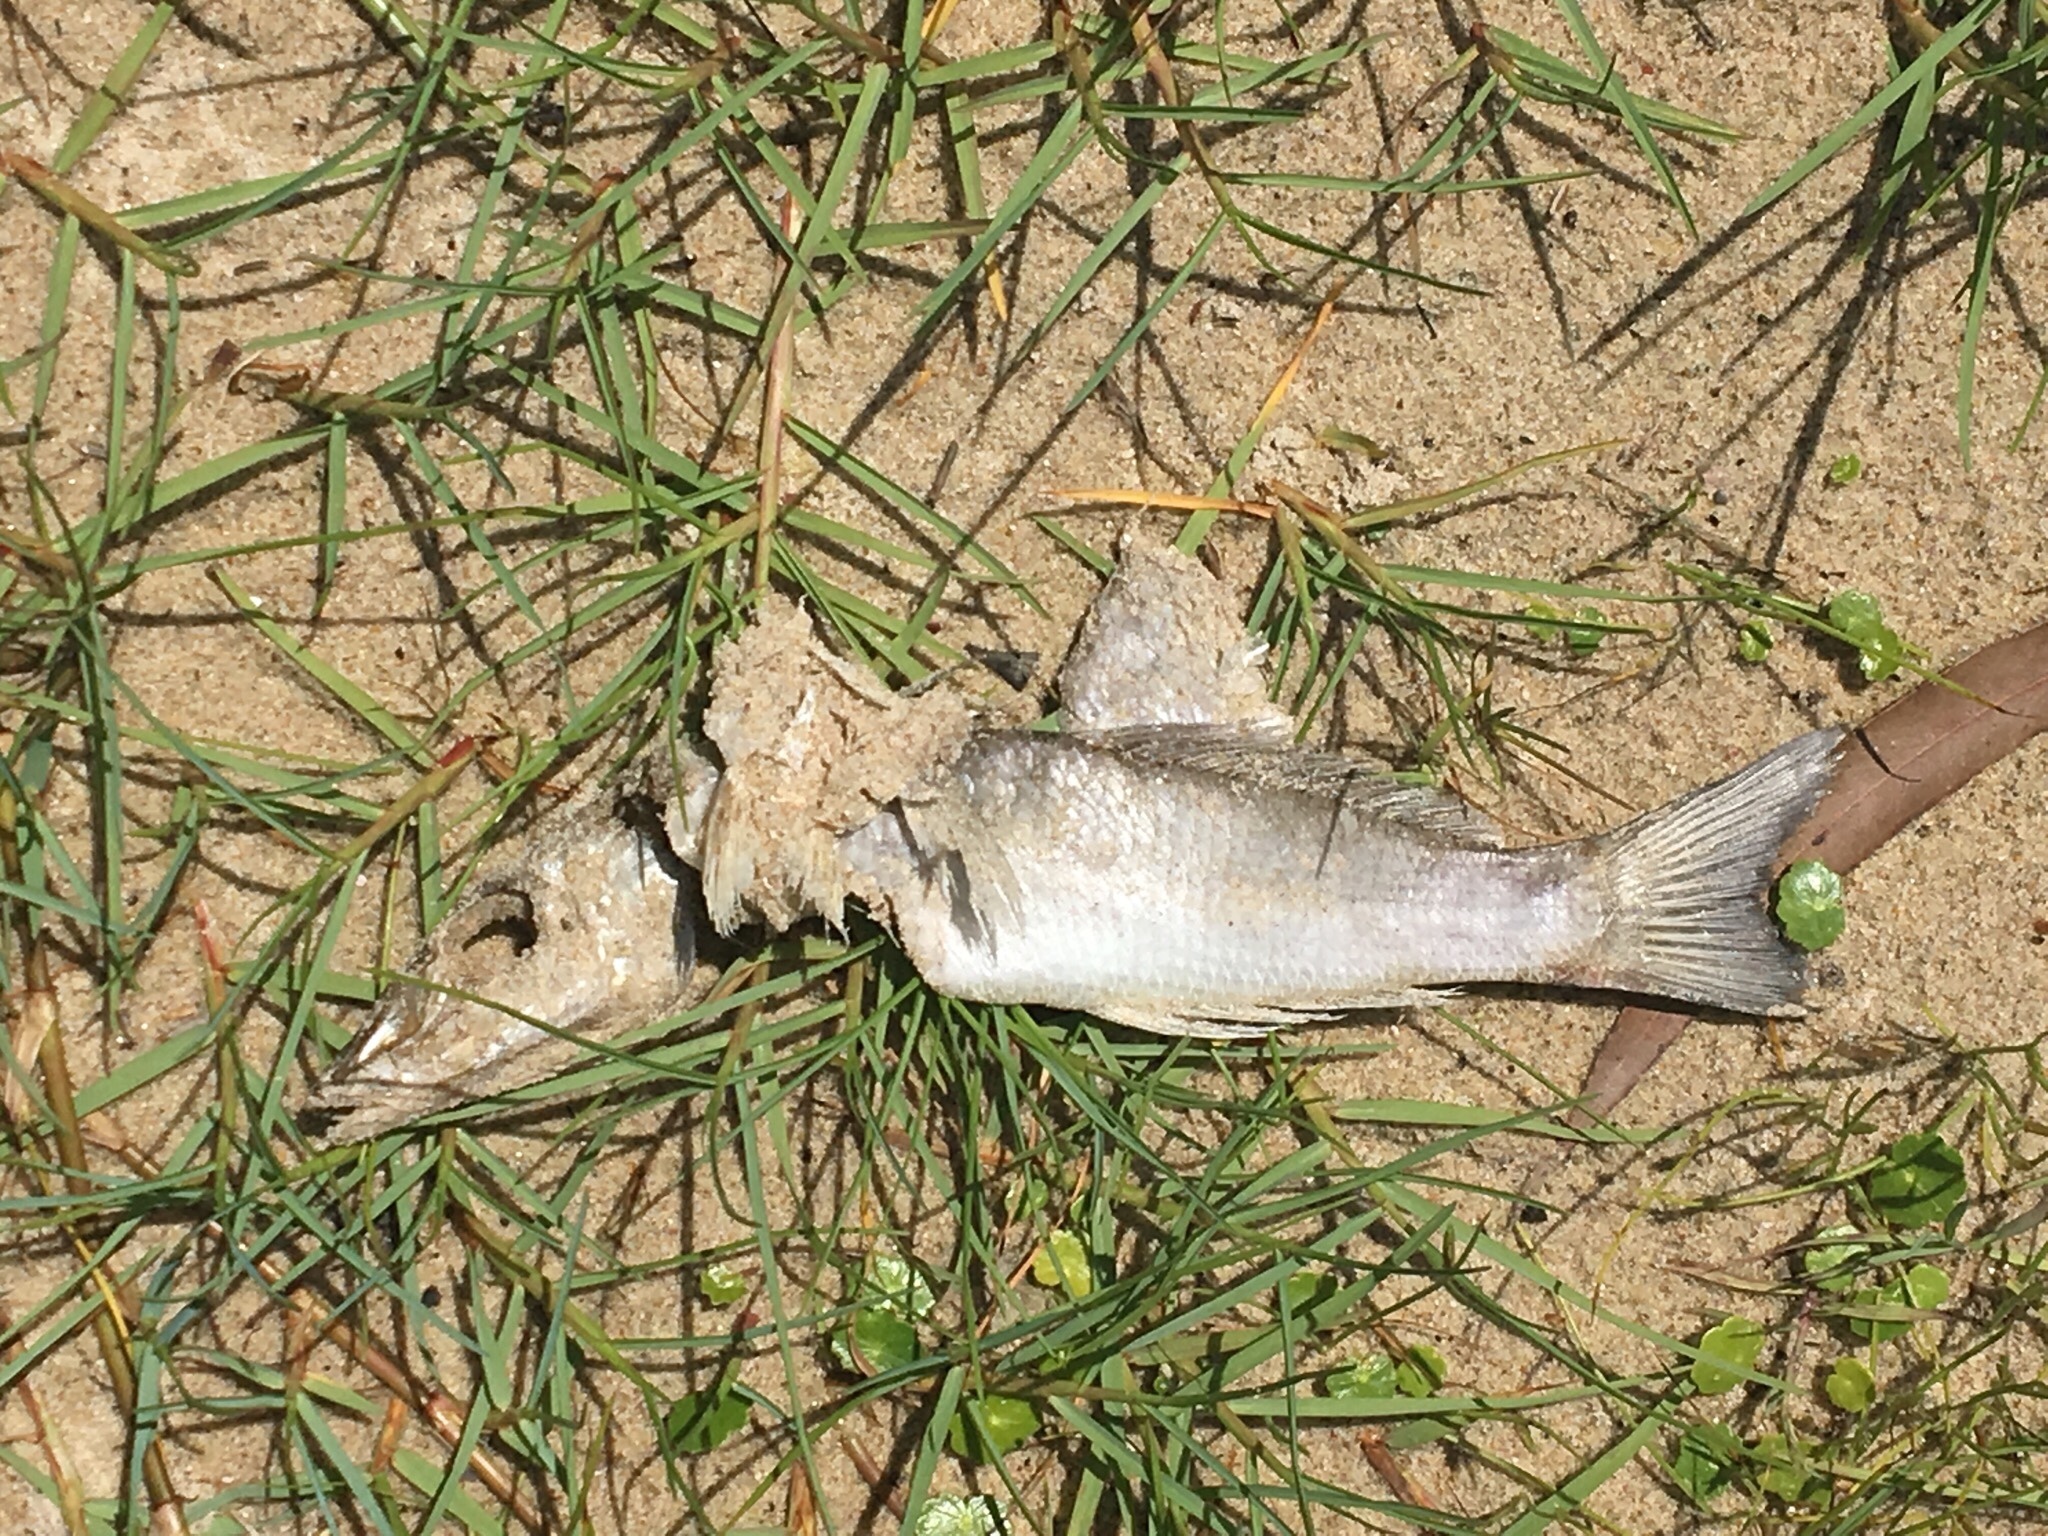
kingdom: Animalia
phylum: Chordata
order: Perciformes
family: Sillaginidae
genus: Sillago
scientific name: Sillago ciliata
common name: Sand sillago
